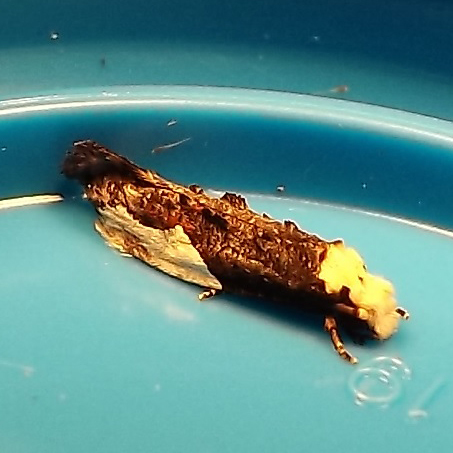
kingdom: Animalia
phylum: Arthropoda
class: Insecta
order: Lepidoptera
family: Tineidae
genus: Monopis
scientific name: Monopis longella
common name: Pavlovski's monopis moth
